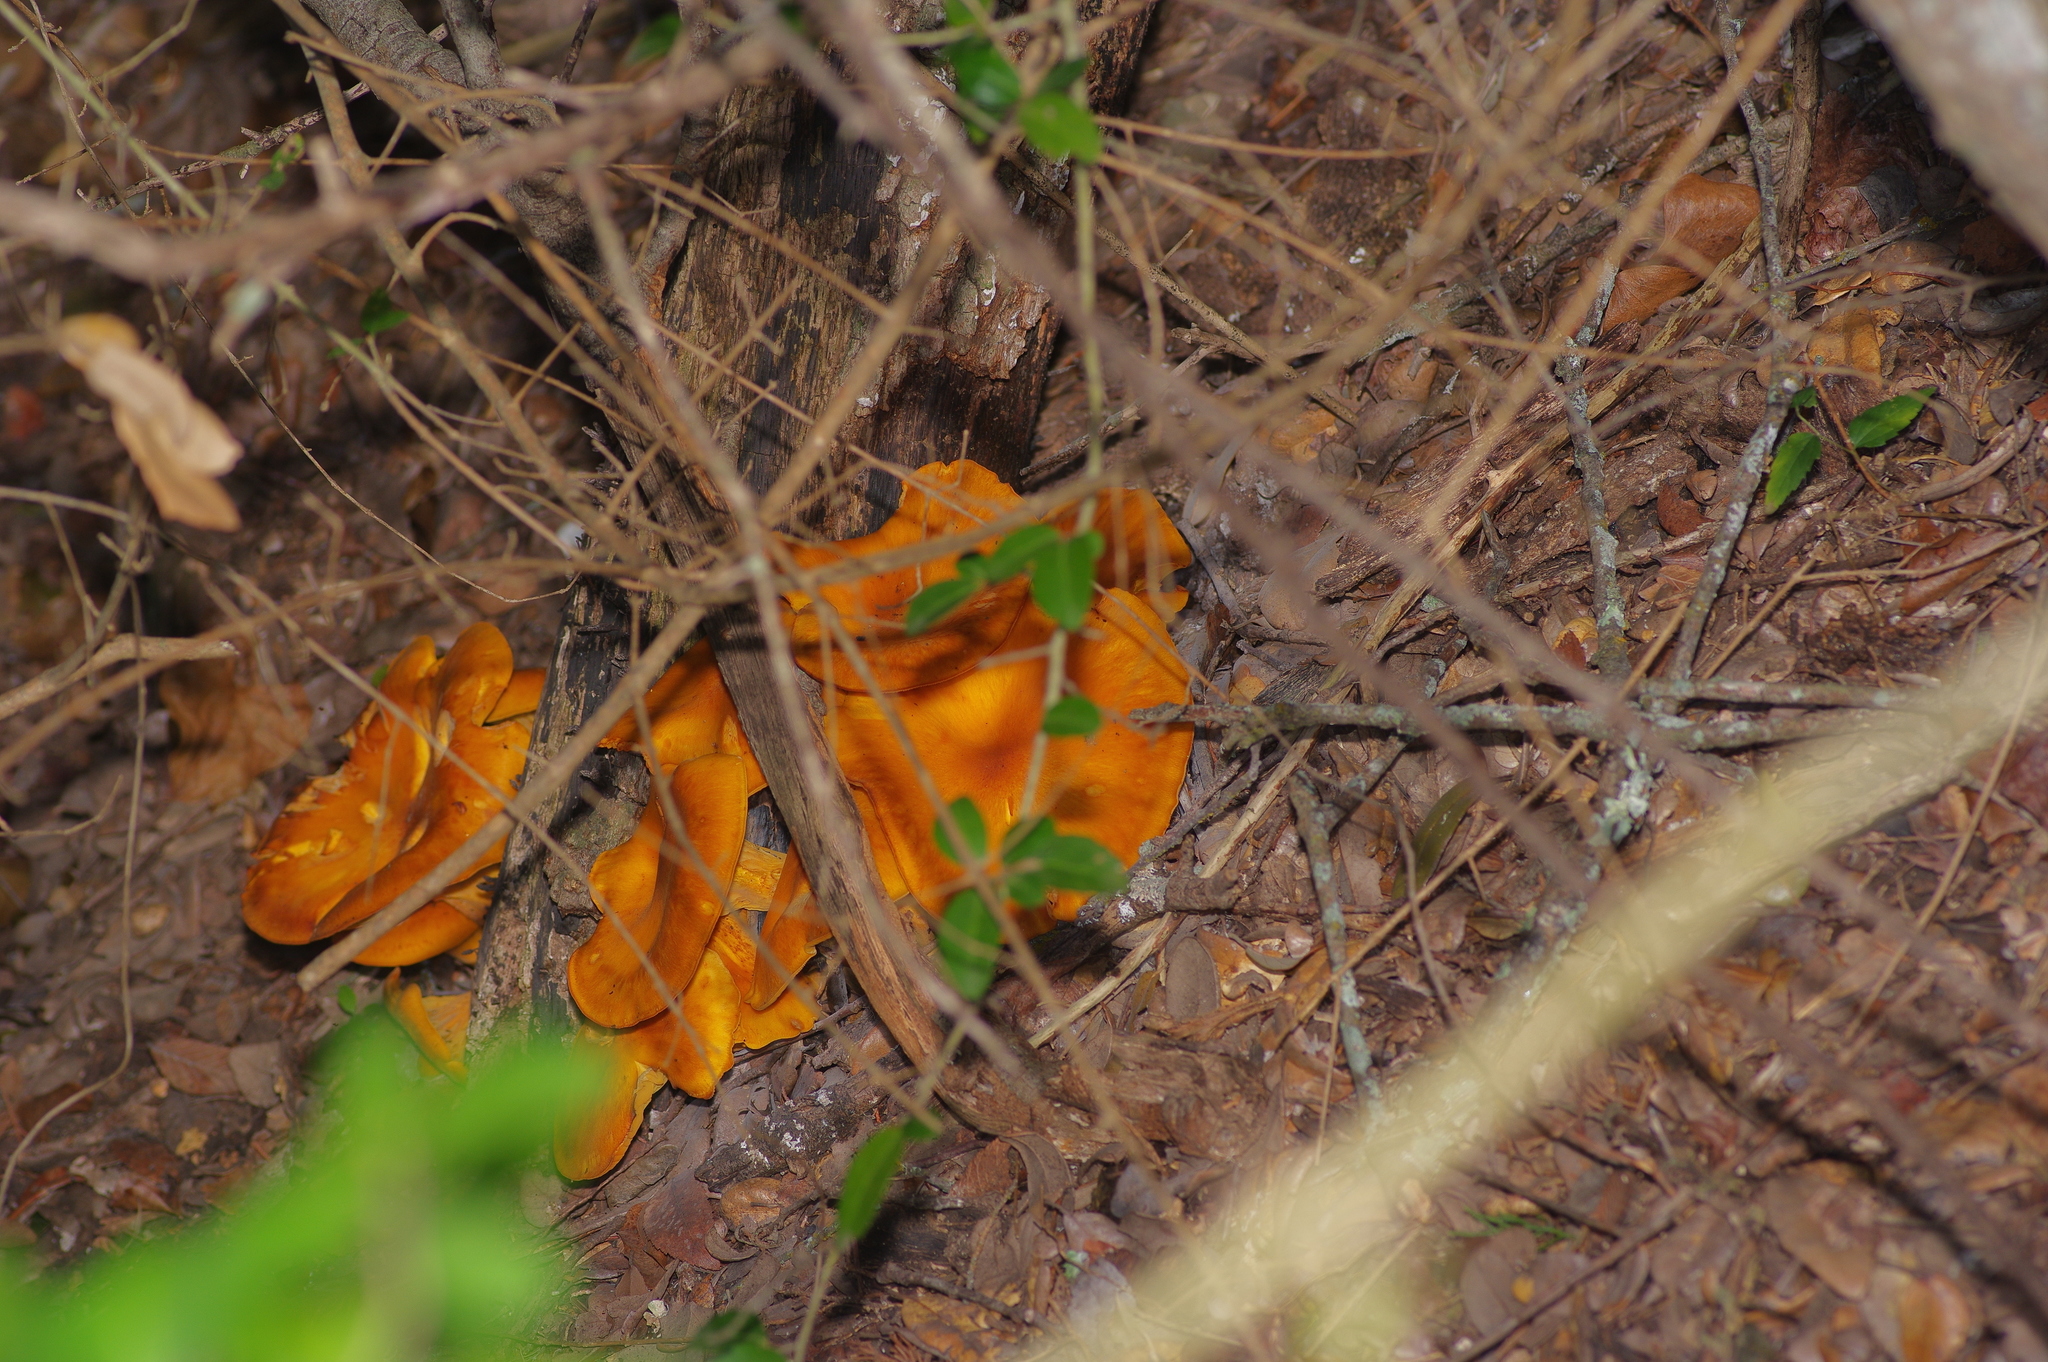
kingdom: Fungi
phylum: Basidiomycota
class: Agaricomycetes
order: Agaricales
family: Omphalotaceae
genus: Omphalotus
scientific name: Omphalotus subilludens
